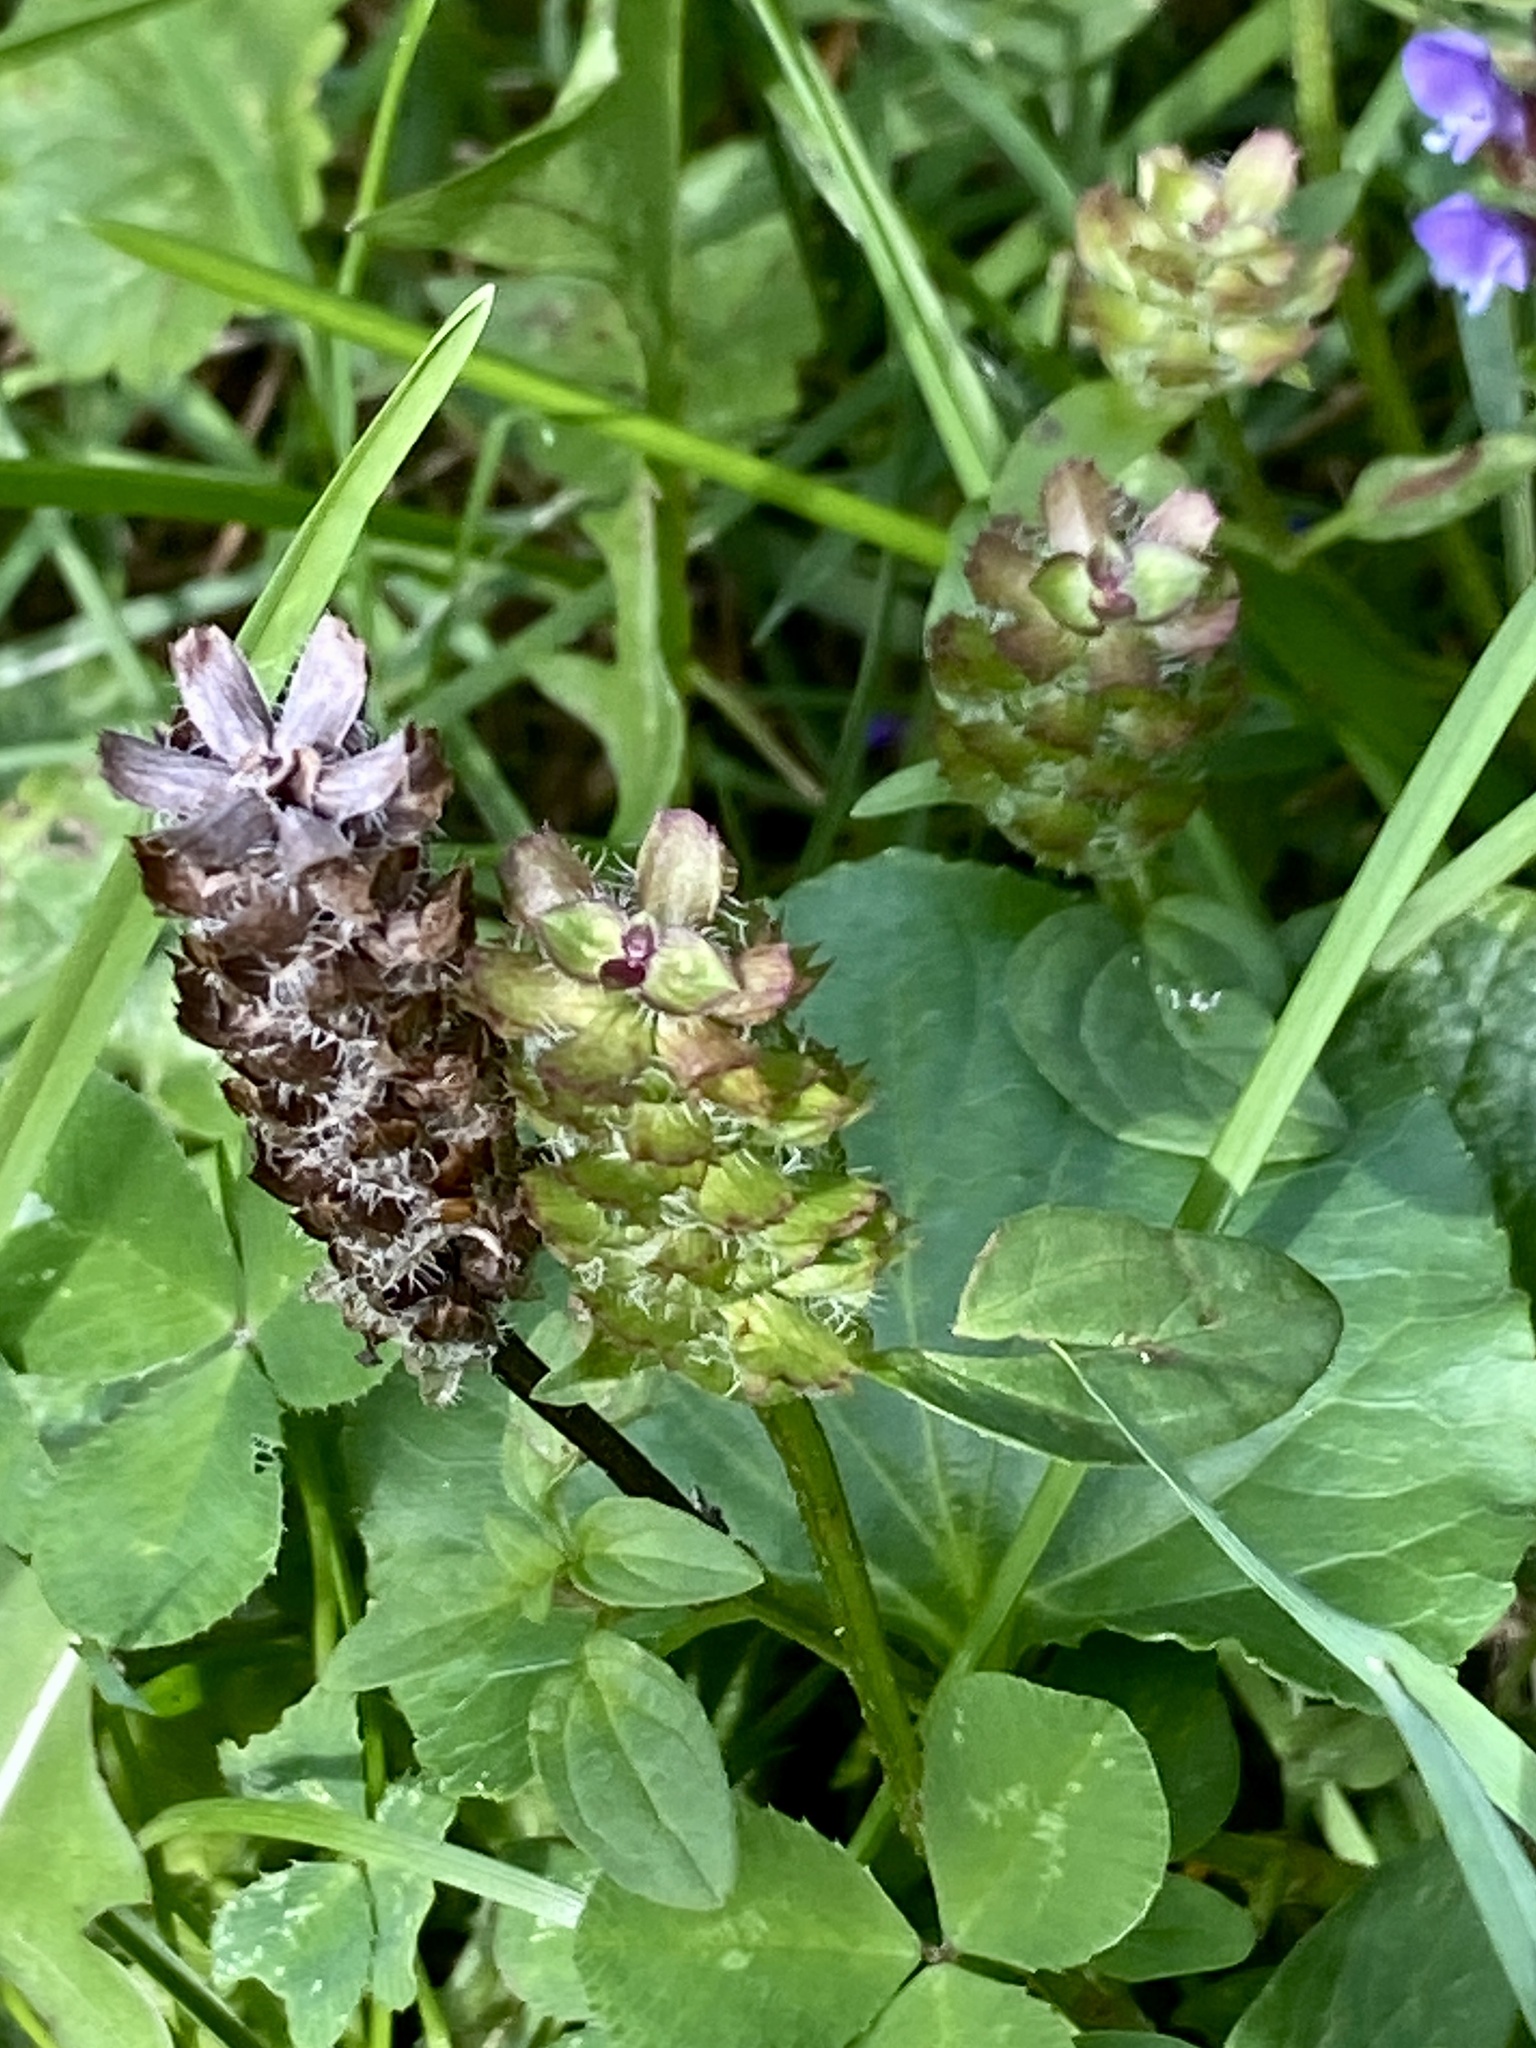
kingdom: Plantae
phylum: Tracheophyta
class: Magnoliopsida
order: Lamiales
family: Lamiaceae
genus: Prunella
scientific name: Prunella vulgaris
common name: Heal-all
